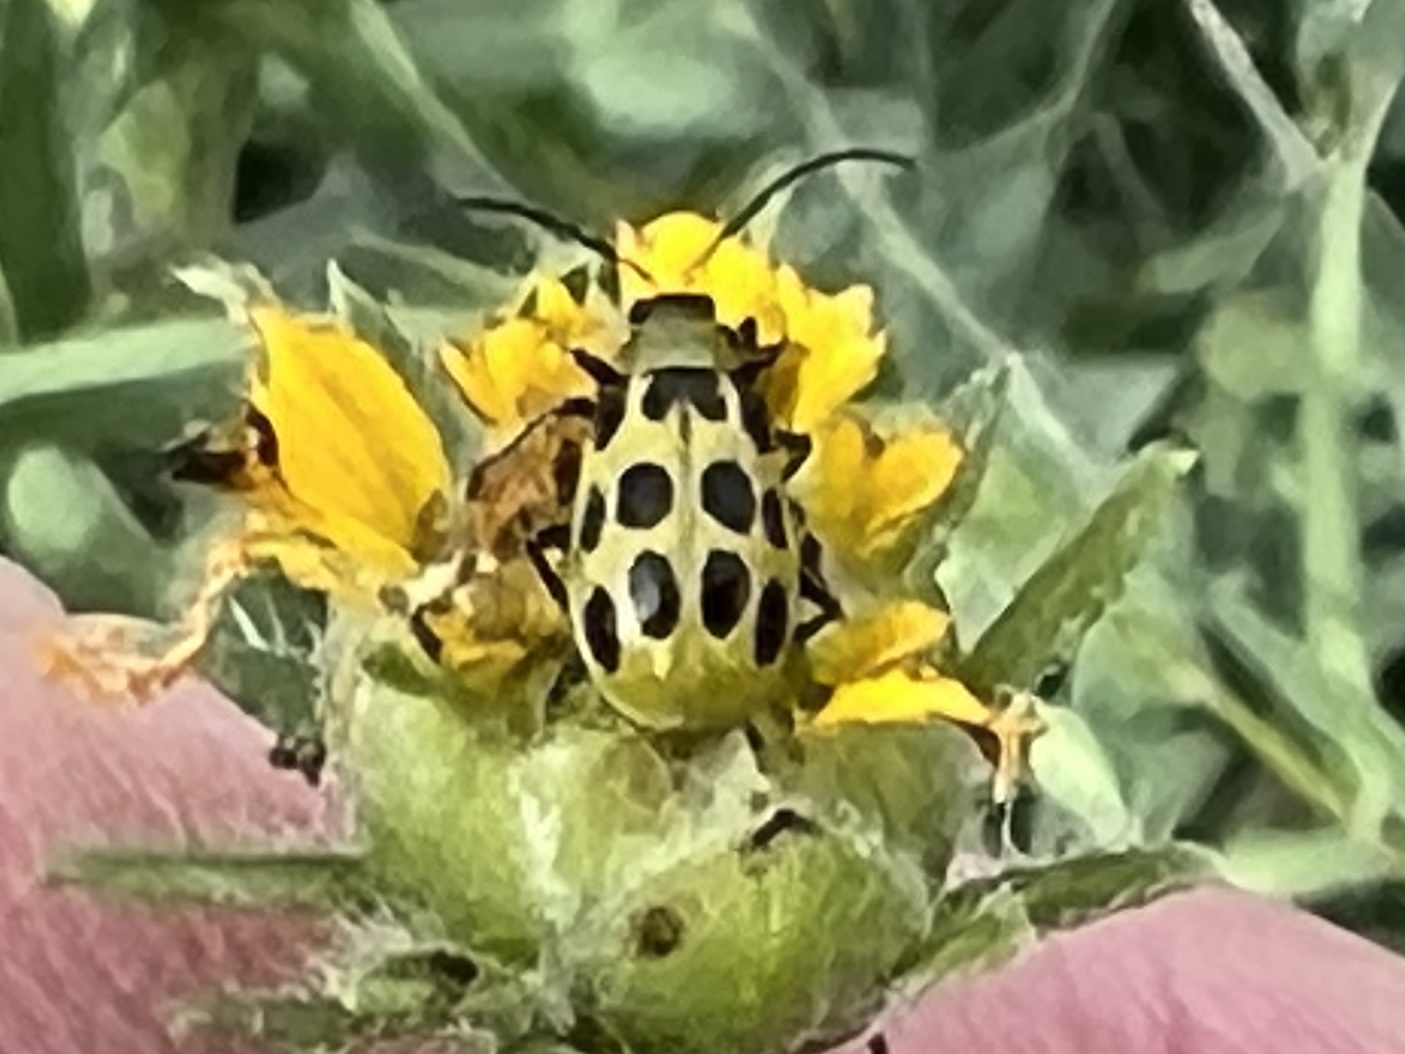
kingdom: Animalia
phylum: Arthropoda
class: Insecta
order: Coleoptera
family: Chrysomelidae
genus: Diabrotica
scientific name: Diabrotica undecimpunctata
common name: Spotted cucumber beetle
